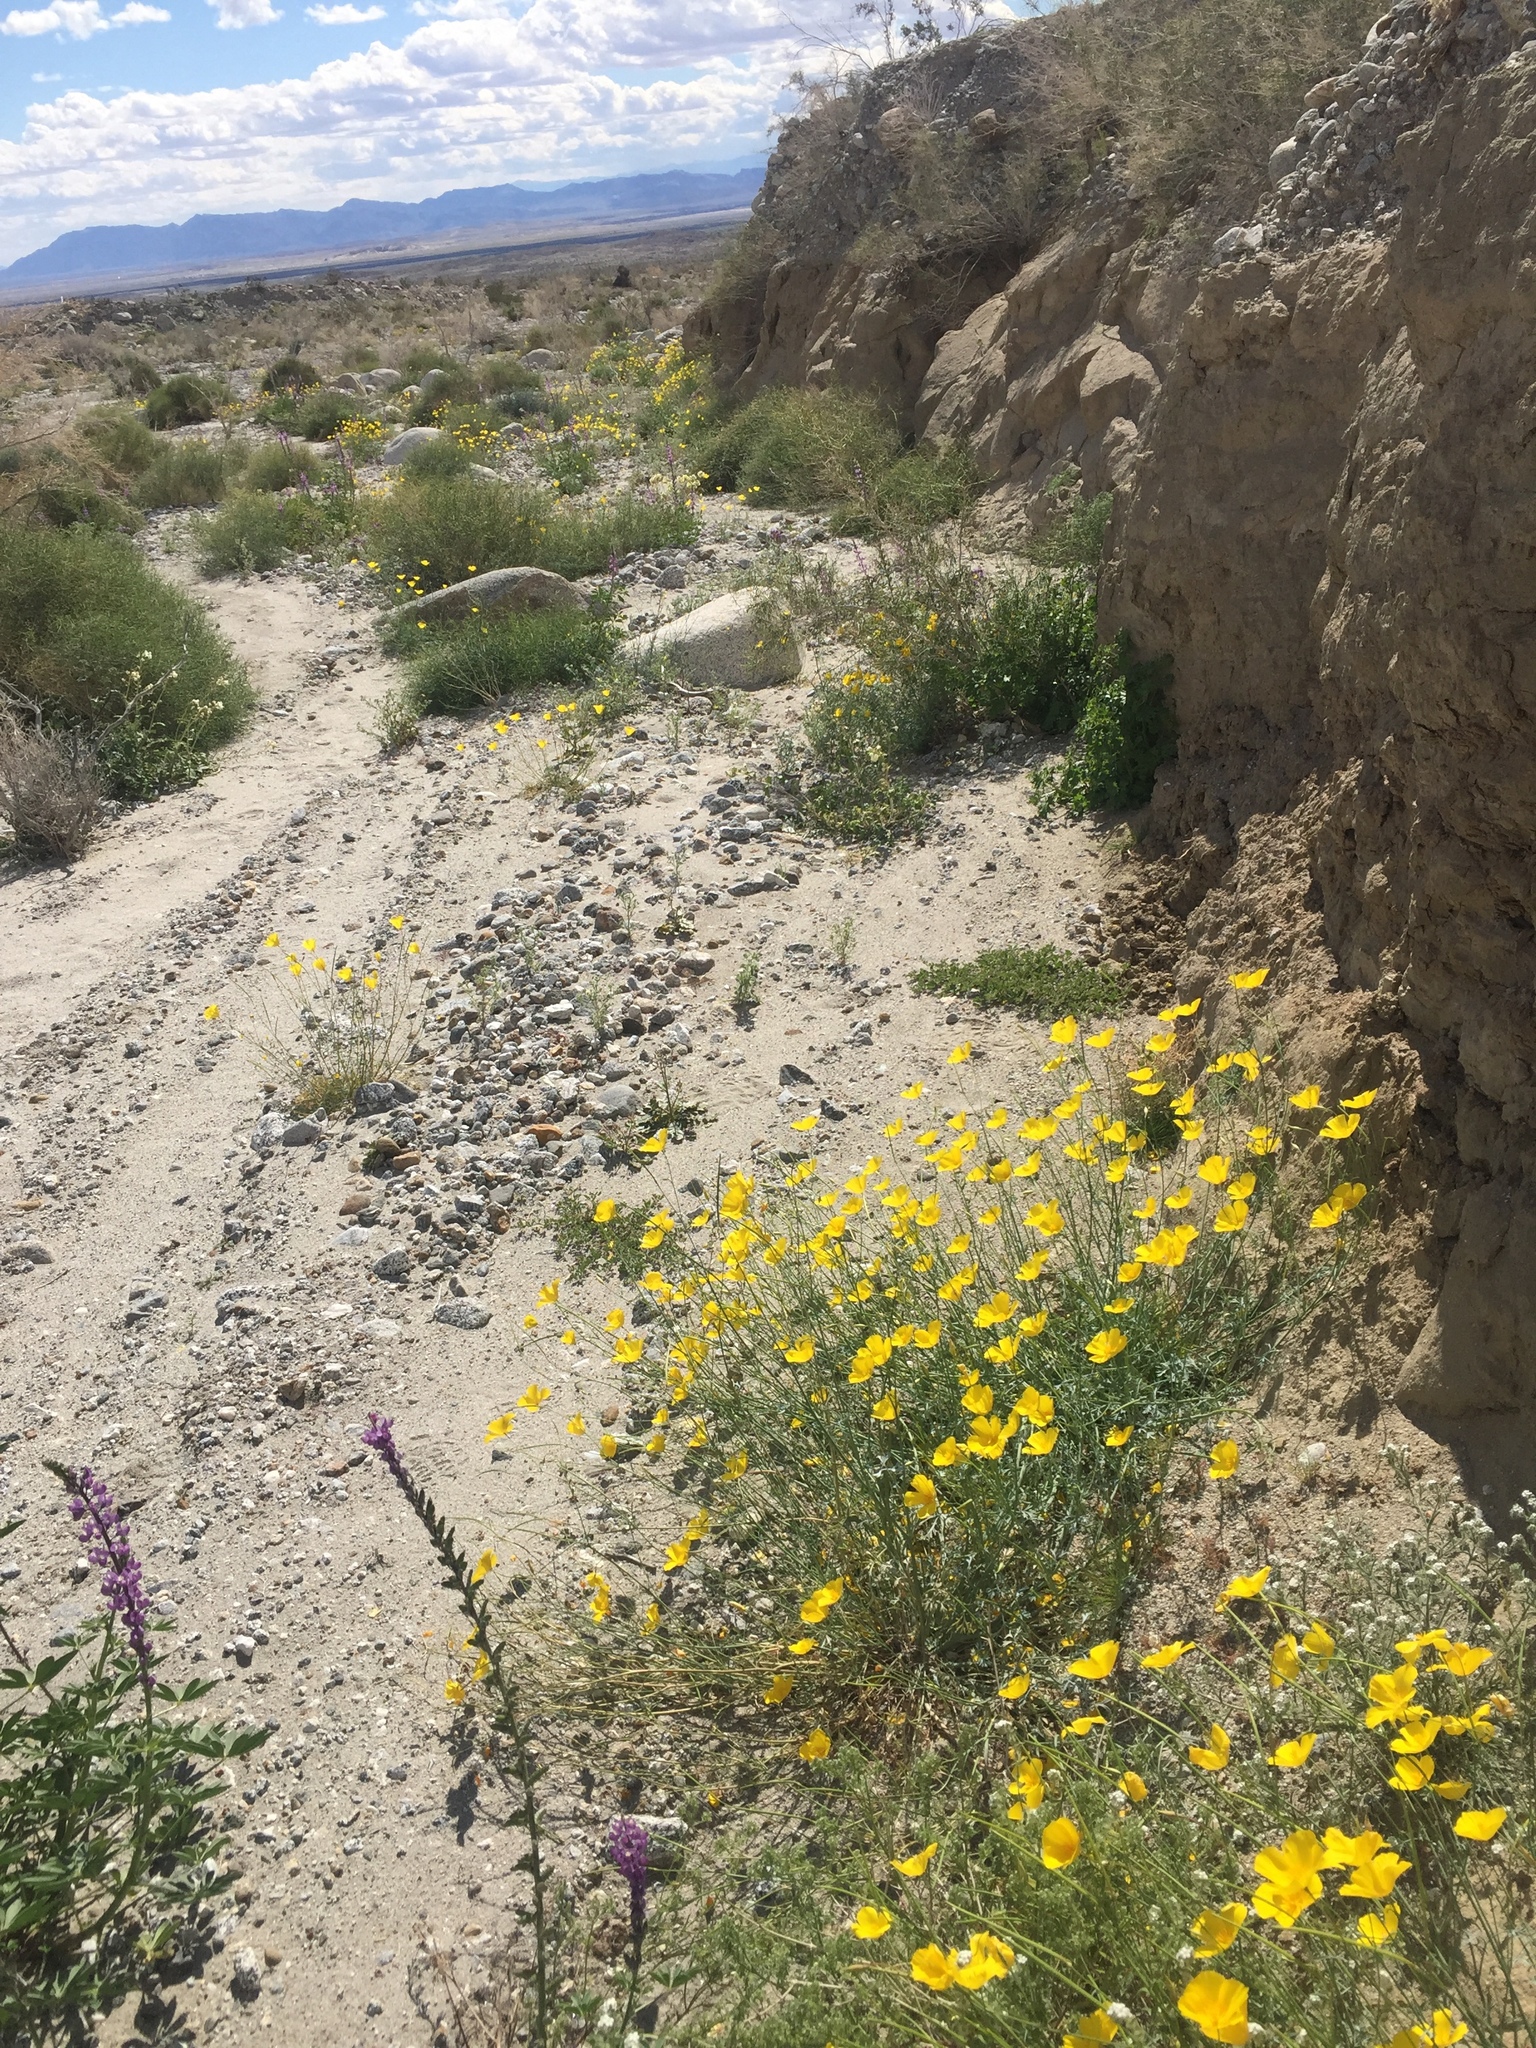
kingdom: Plantae
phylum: Tracheophyta
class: Magnoliopsida
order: Ranunculales
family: Papaveraceae
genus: Eschscholzia
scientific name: Eschscholzia parishii
